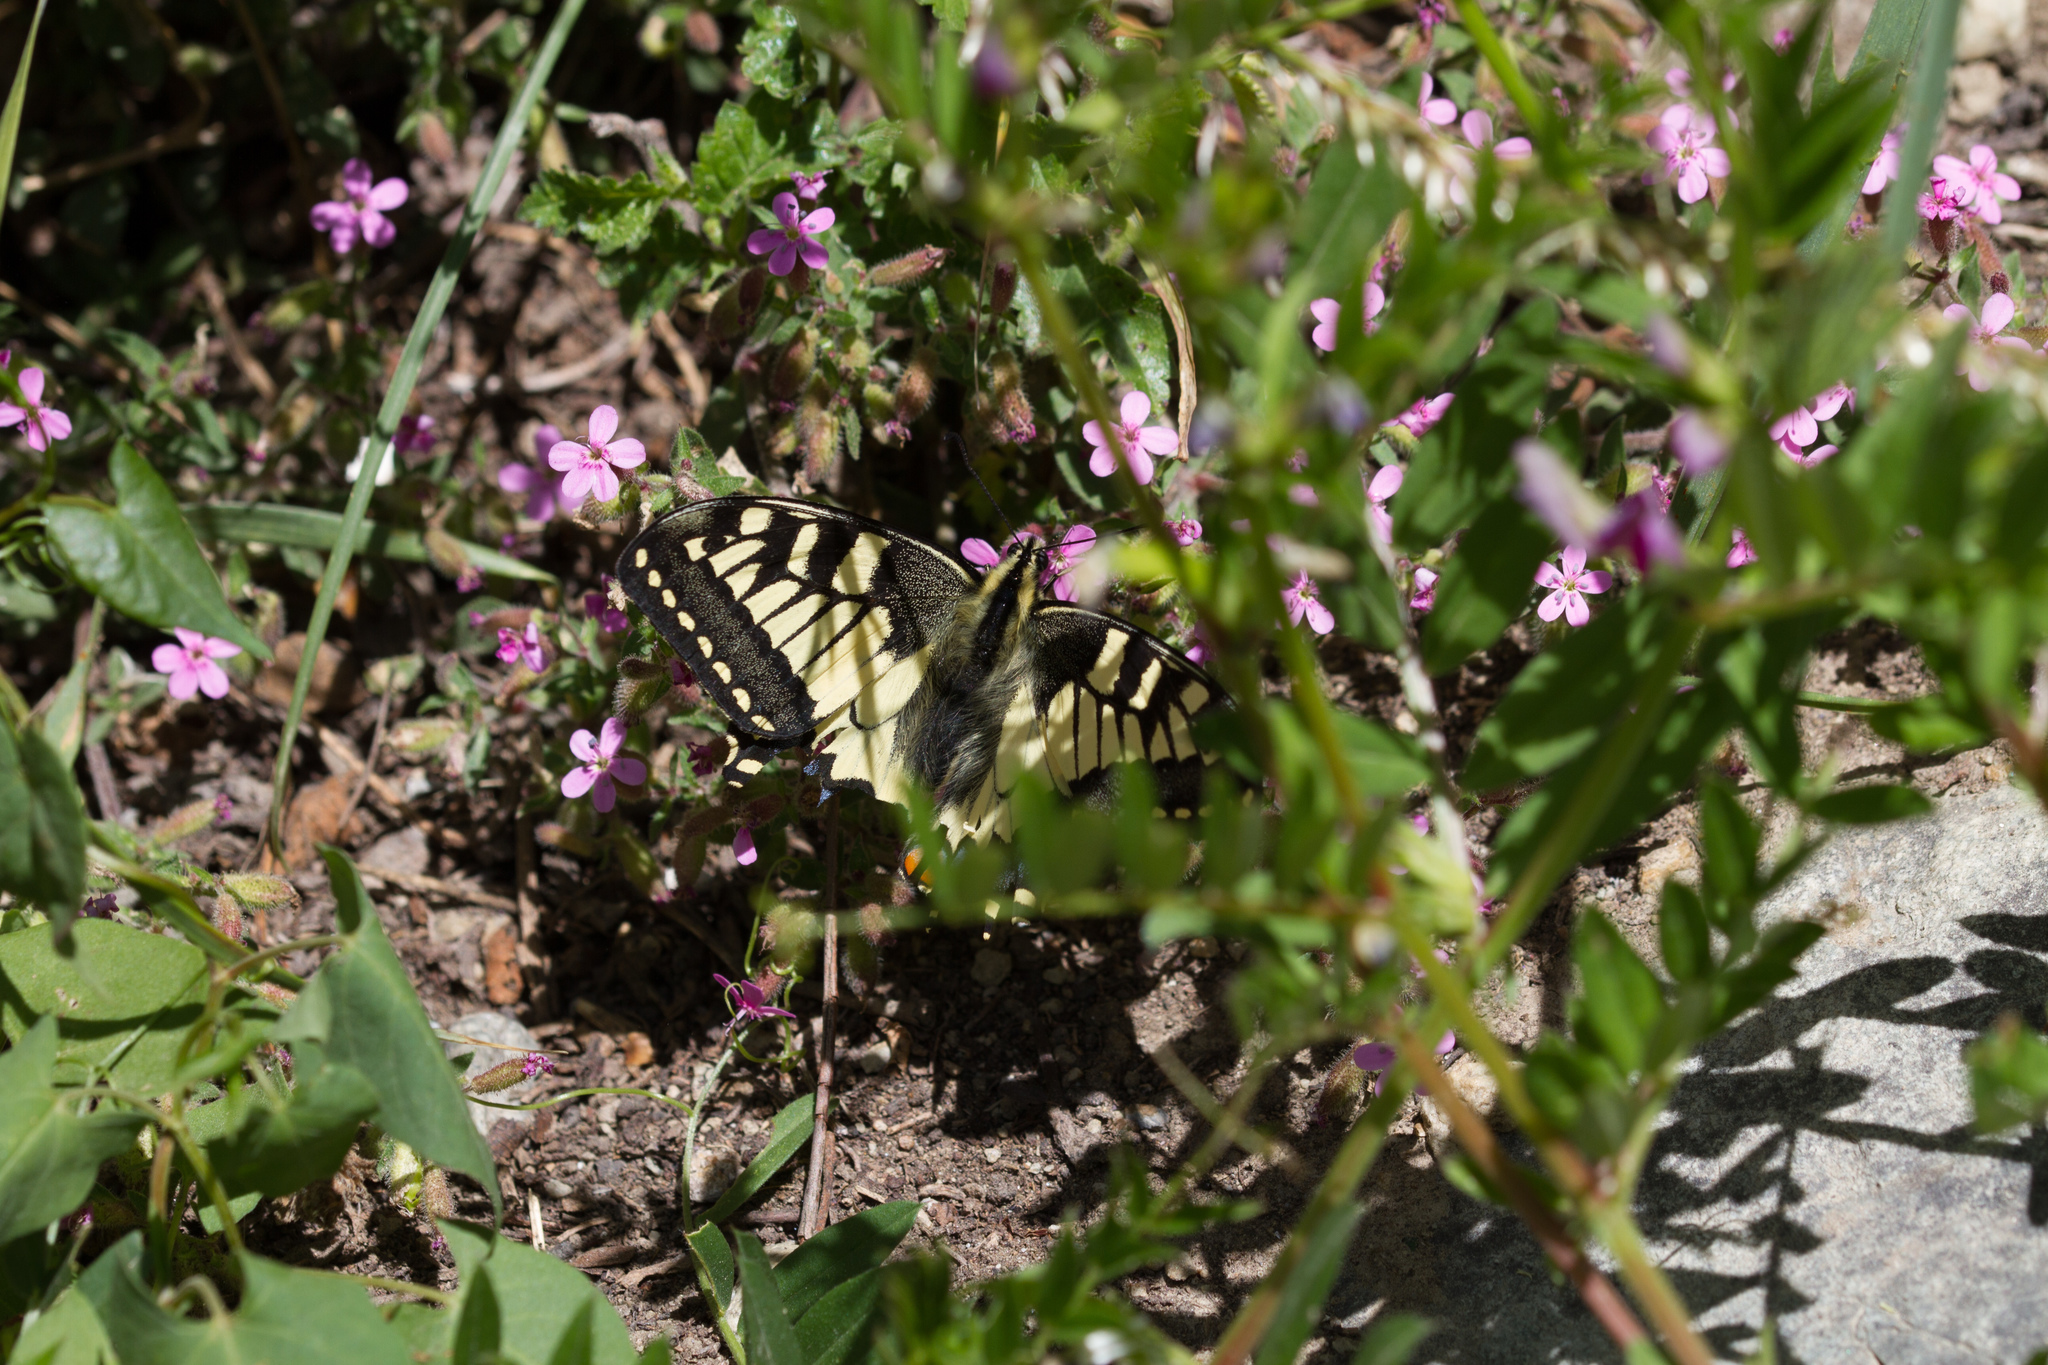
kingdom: Animalia
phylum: Arthropoda
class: Insecta
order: Lepidoptera
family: Papilionidae
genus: Papilio
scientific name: Papilio machaon
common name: Swallowtail
